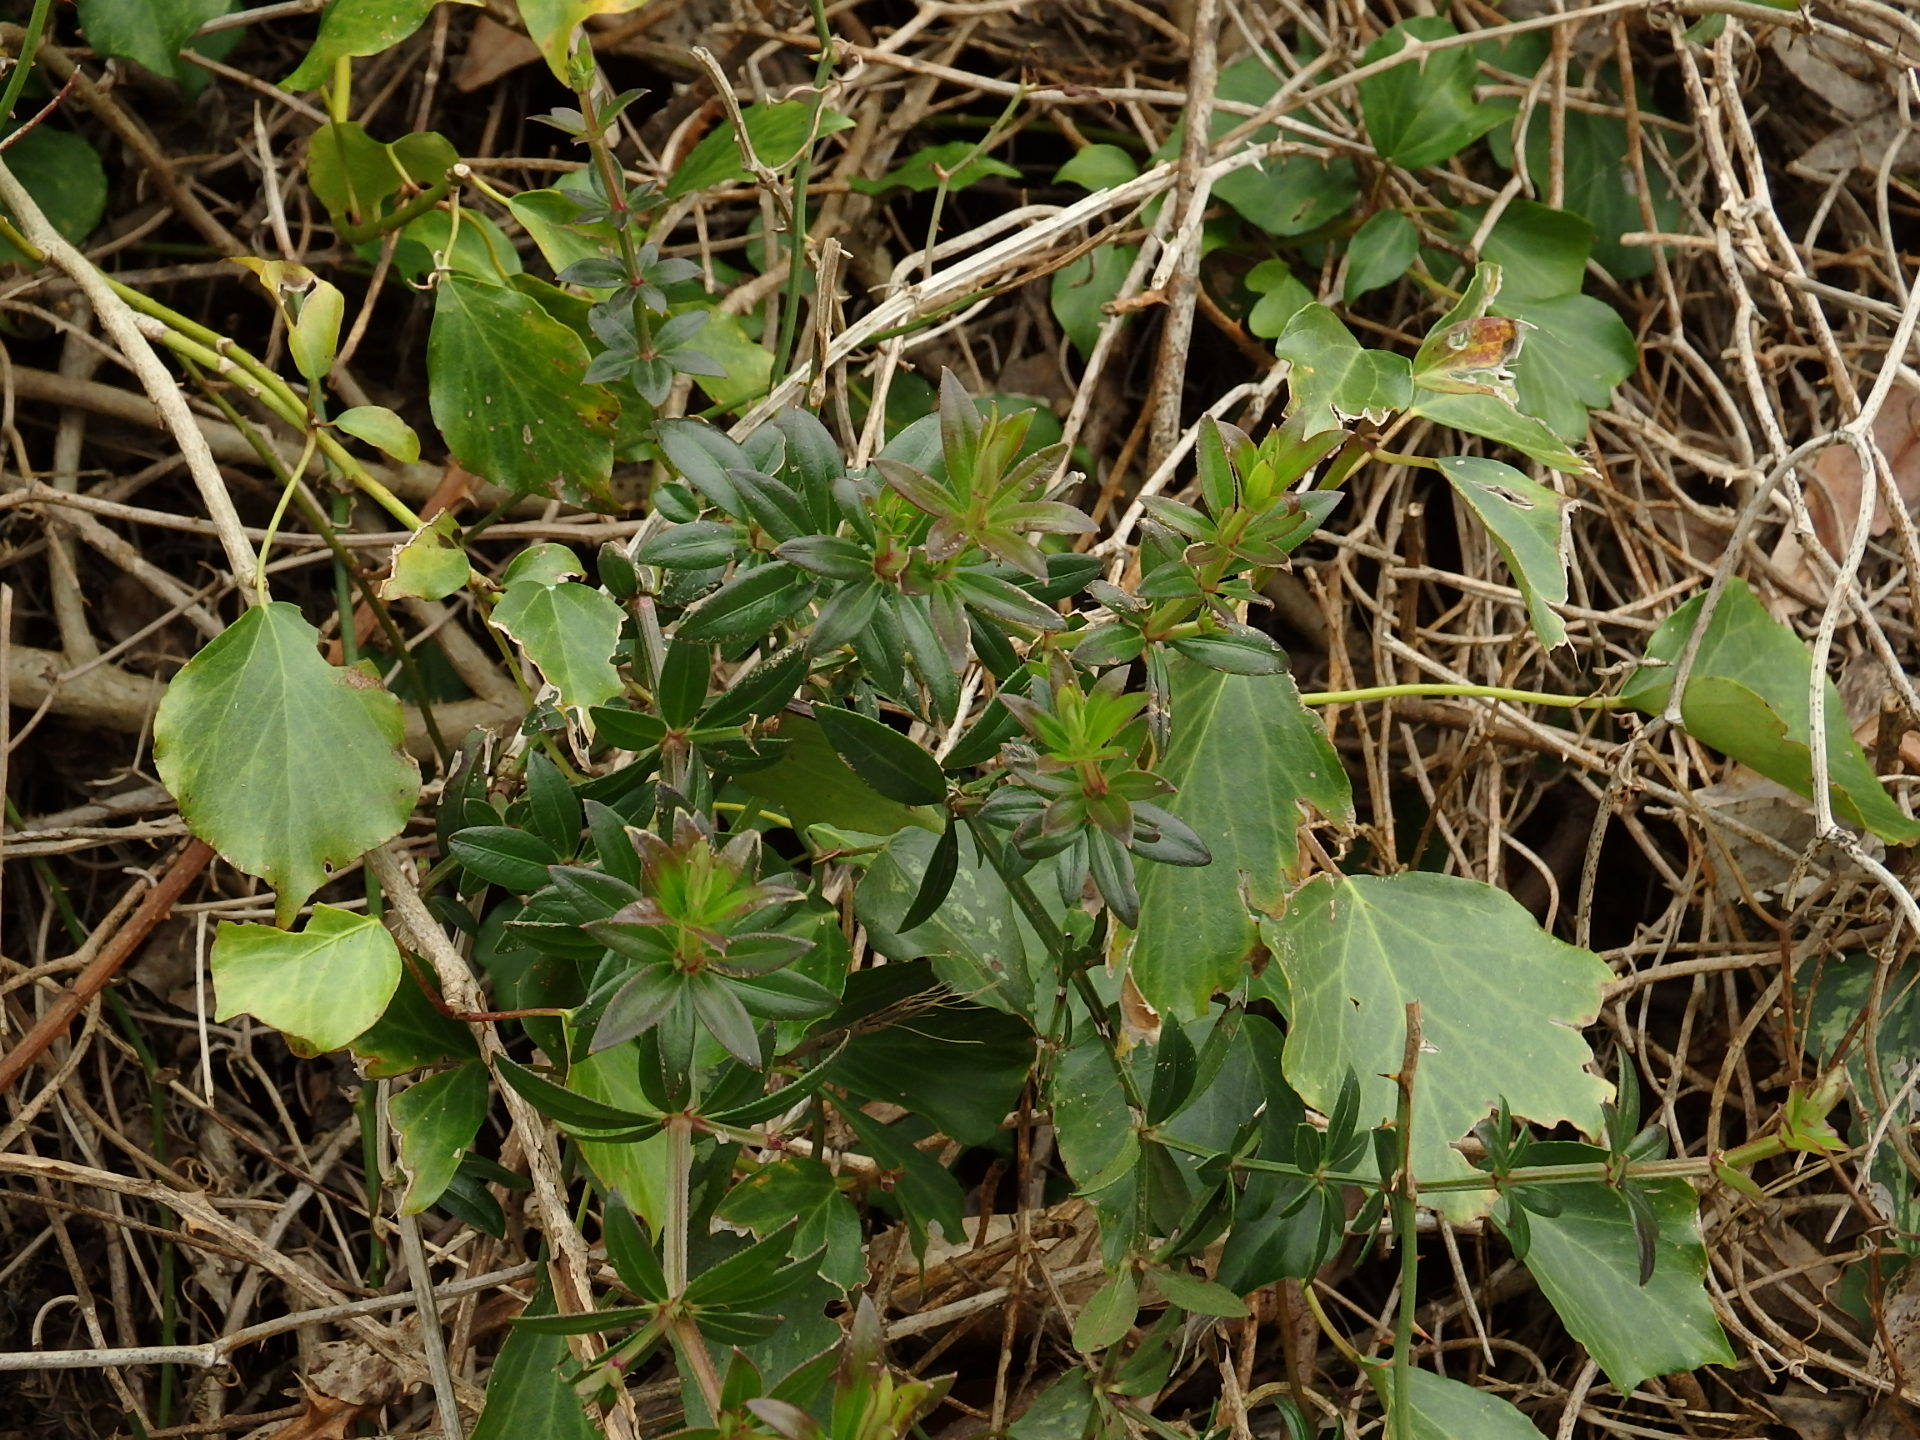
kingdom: Plantae
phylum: Tracheophyta
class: Magnoliopsida
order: Gentianales
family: Rubiaceae
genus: Rubia
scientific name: Rubia peregrina
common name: Wild madder
